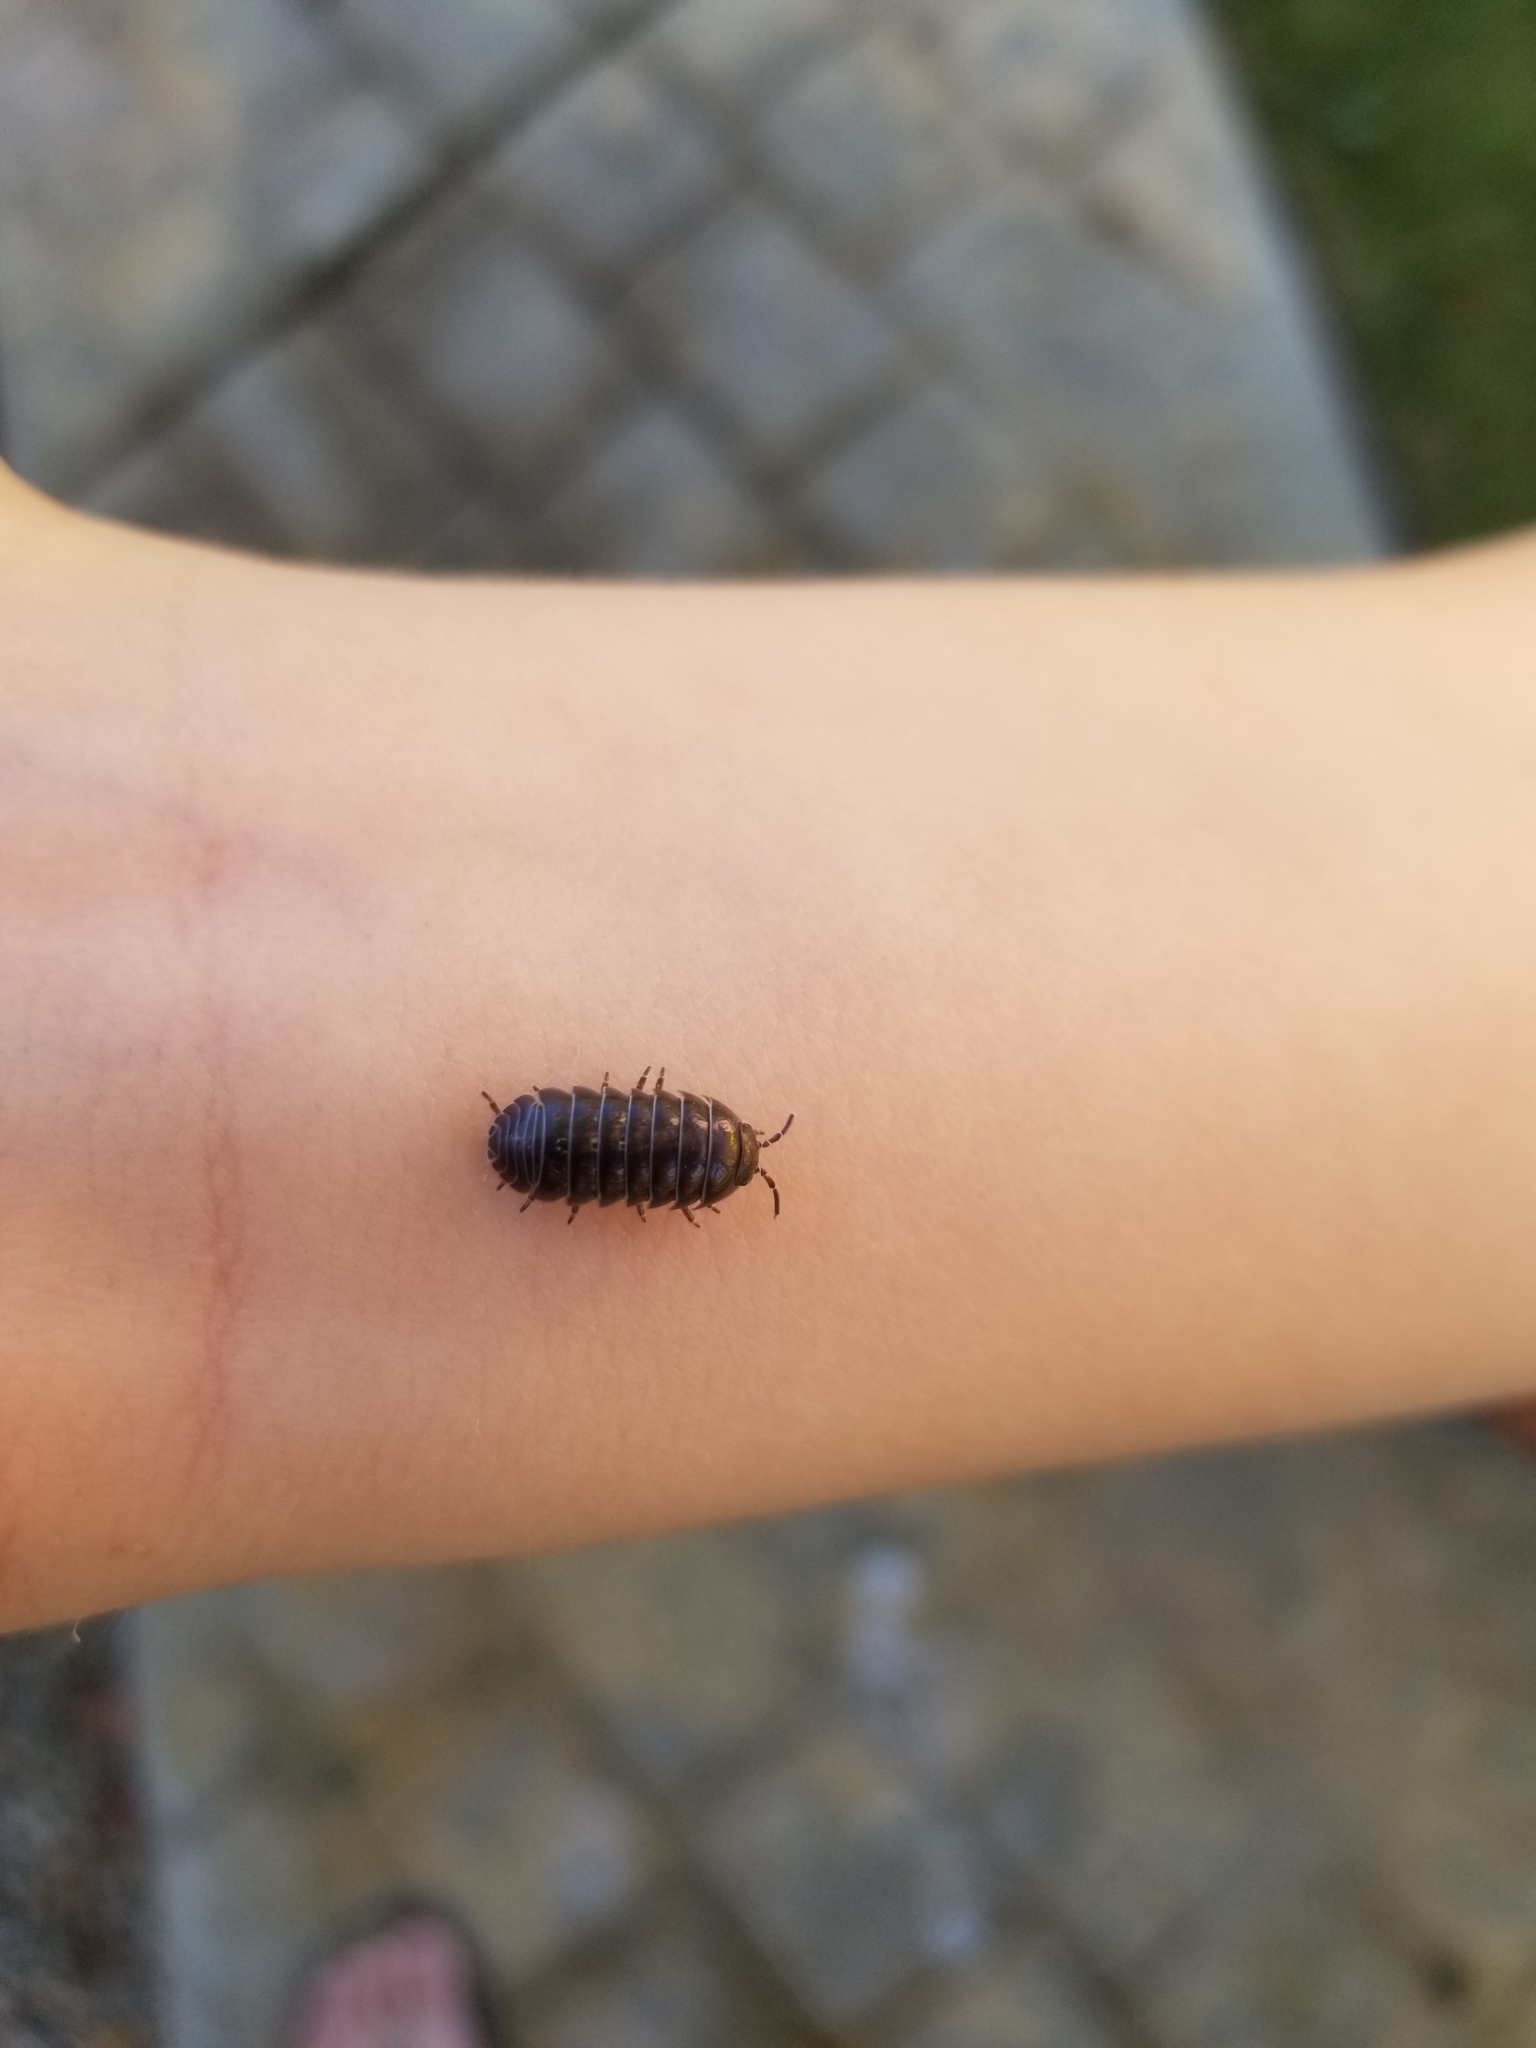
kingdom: Animalia
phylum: Arthropoda
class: Malacostraca
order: Isopoda
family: Armadillidiidae
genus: Armadillidium
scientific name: Armadillidium vulgare
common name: Common pill woodlouse
